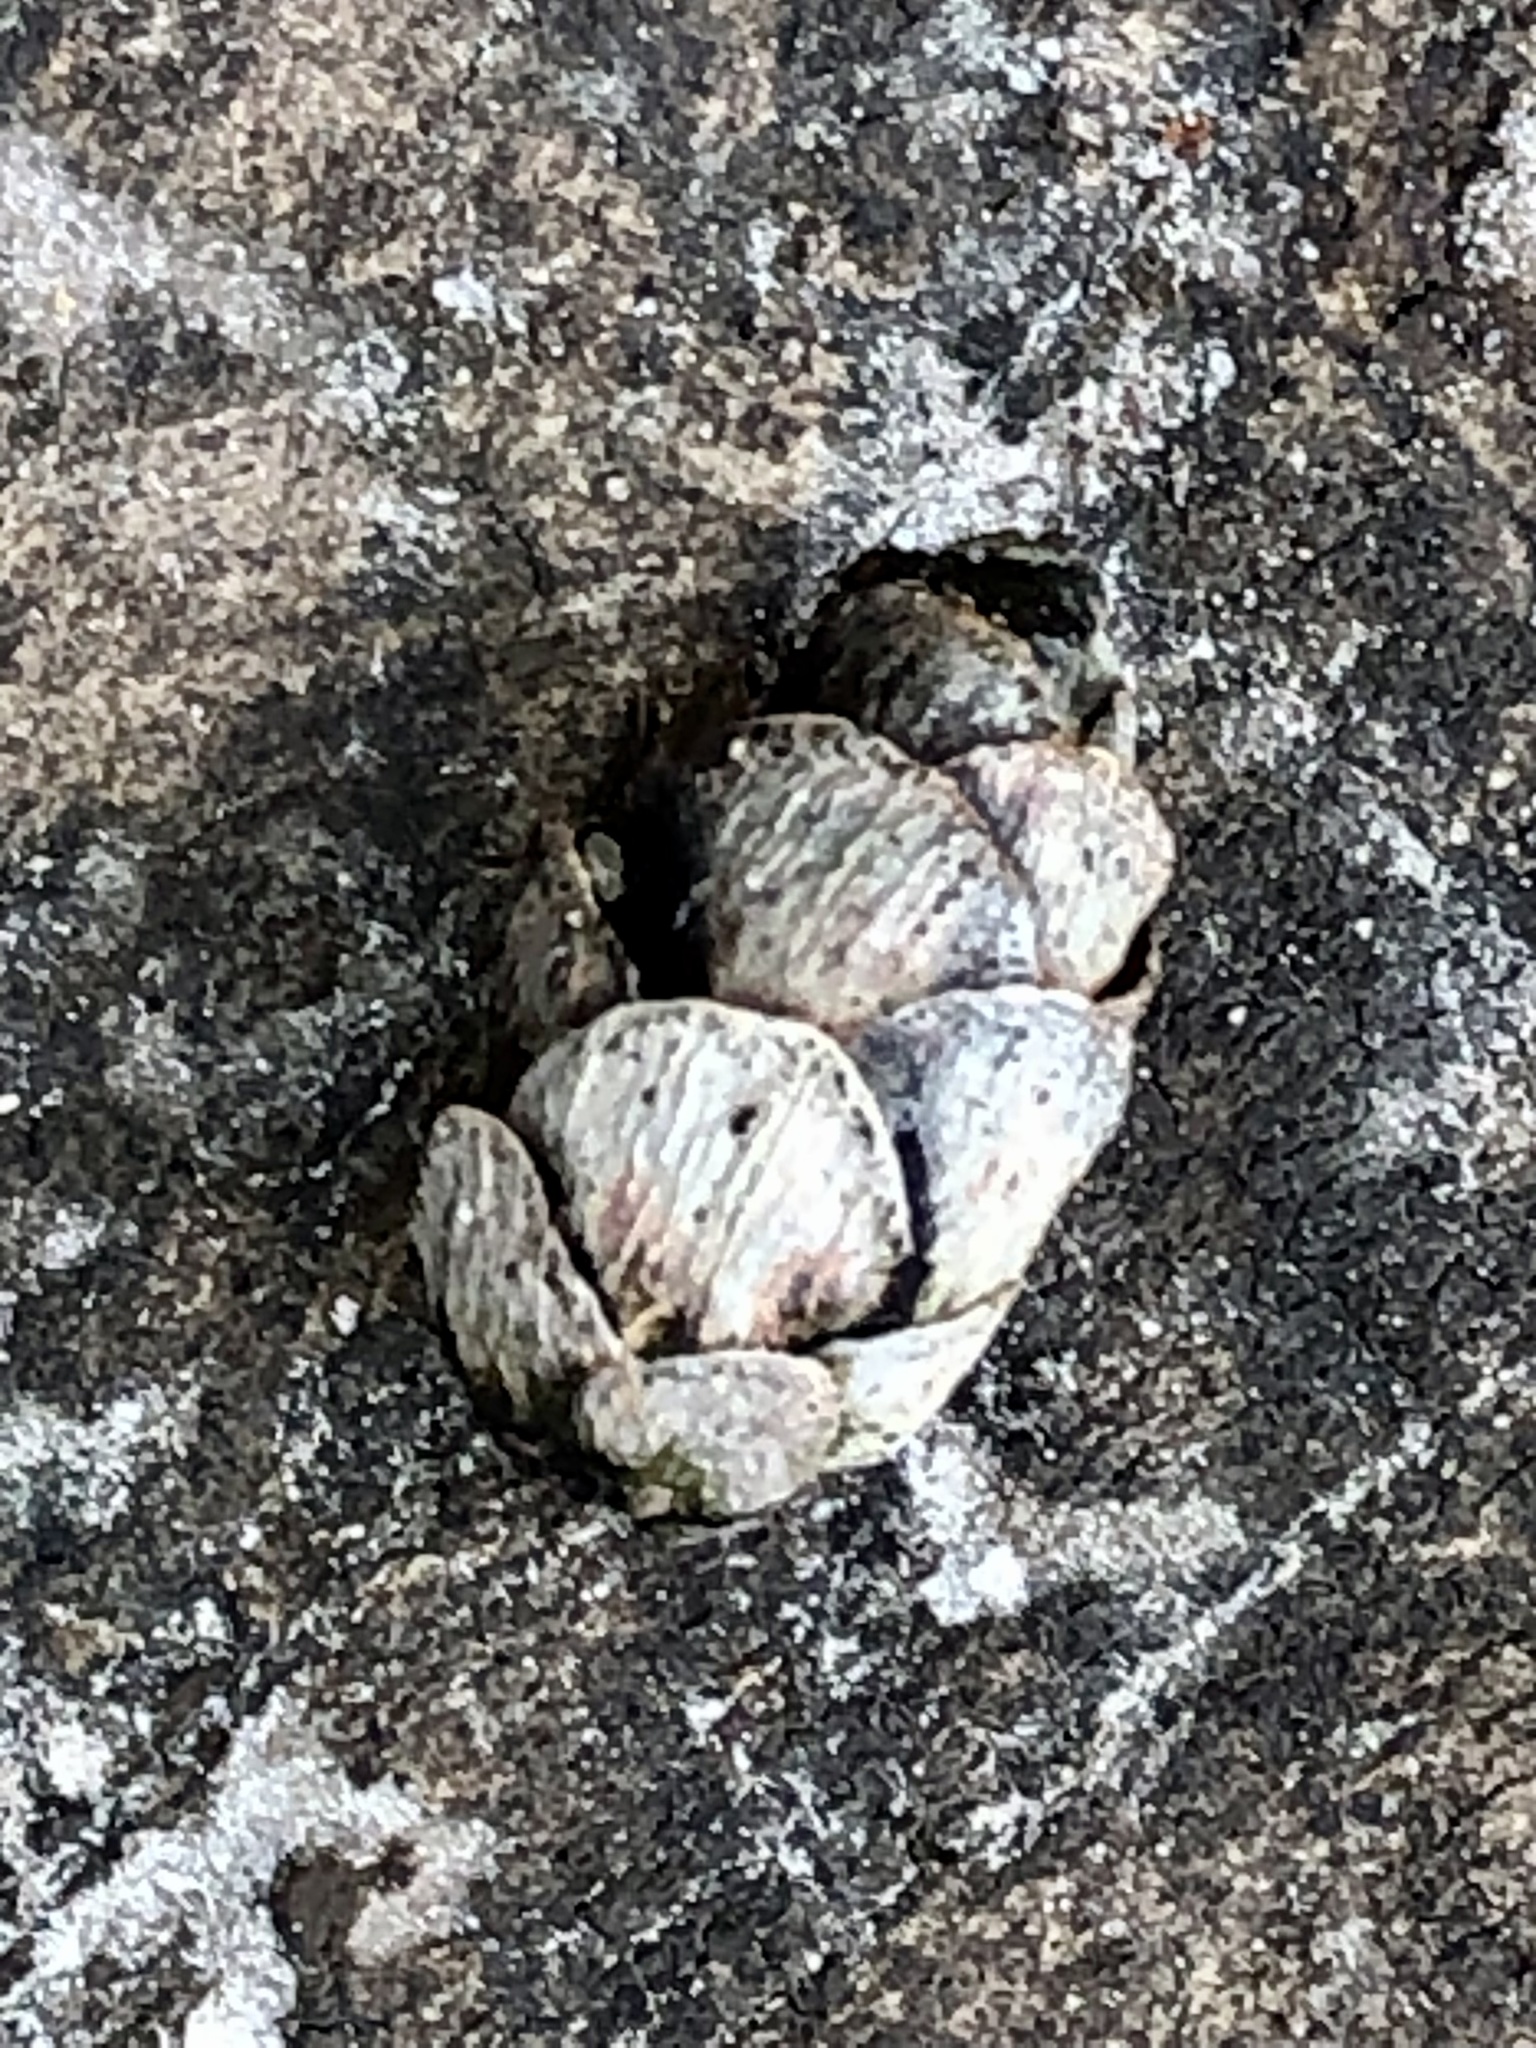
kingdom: Plantae
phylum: Tracheophyta
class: Pinopsida
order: Pinales
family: Pinaceae
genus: Tsuga
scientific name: Tsuga canadensis
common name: Eastern hemlock
